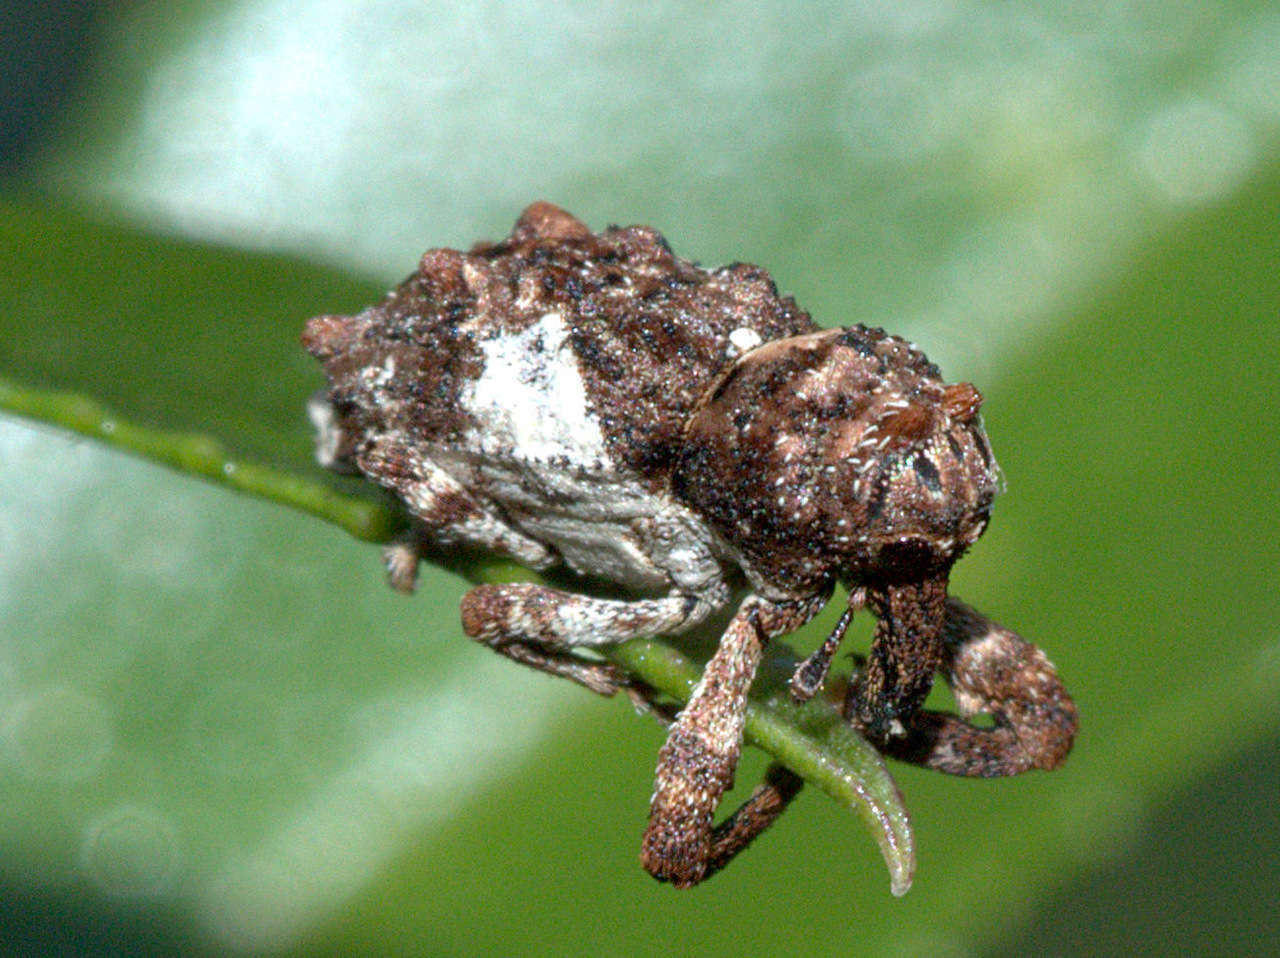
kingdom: Animalia
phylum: Arthropoda
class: Insecta
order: Coleoptera
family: Curculionidae
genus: Orthorhinus
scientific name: Orthorhinus klugii
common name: Vine weevil
